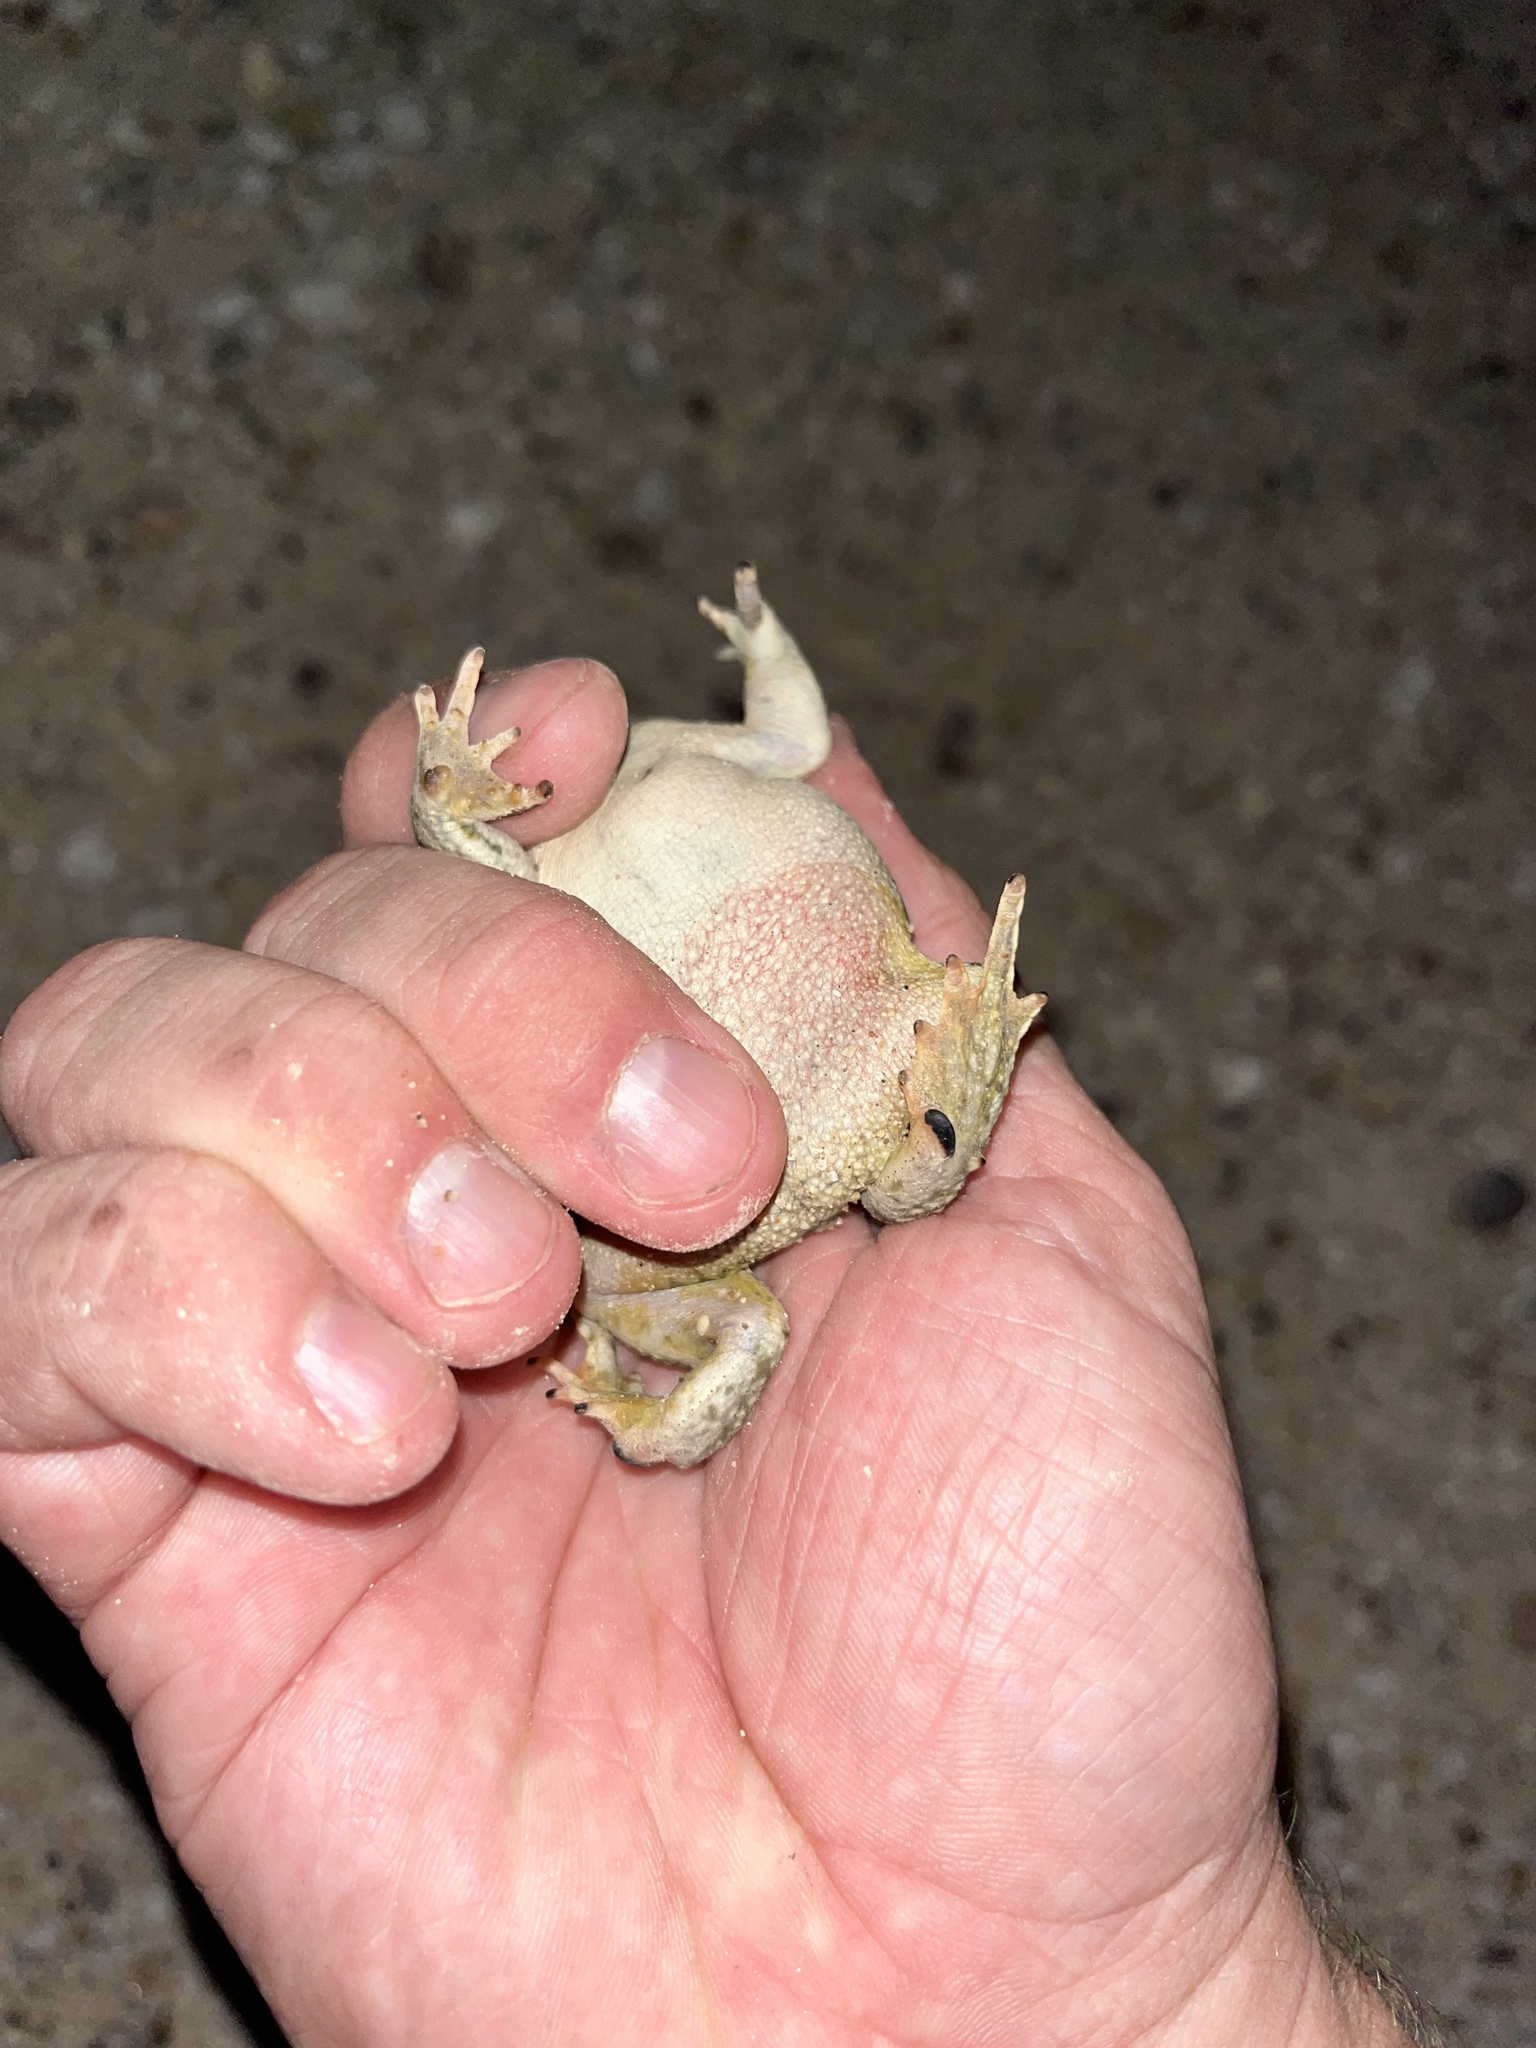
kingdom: Animalia
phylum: Chordata
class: Amphibia
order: Anura
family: Bufonidae
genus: Anaxyrus
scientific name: Anaxyrus speciosus
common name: Texas toad
